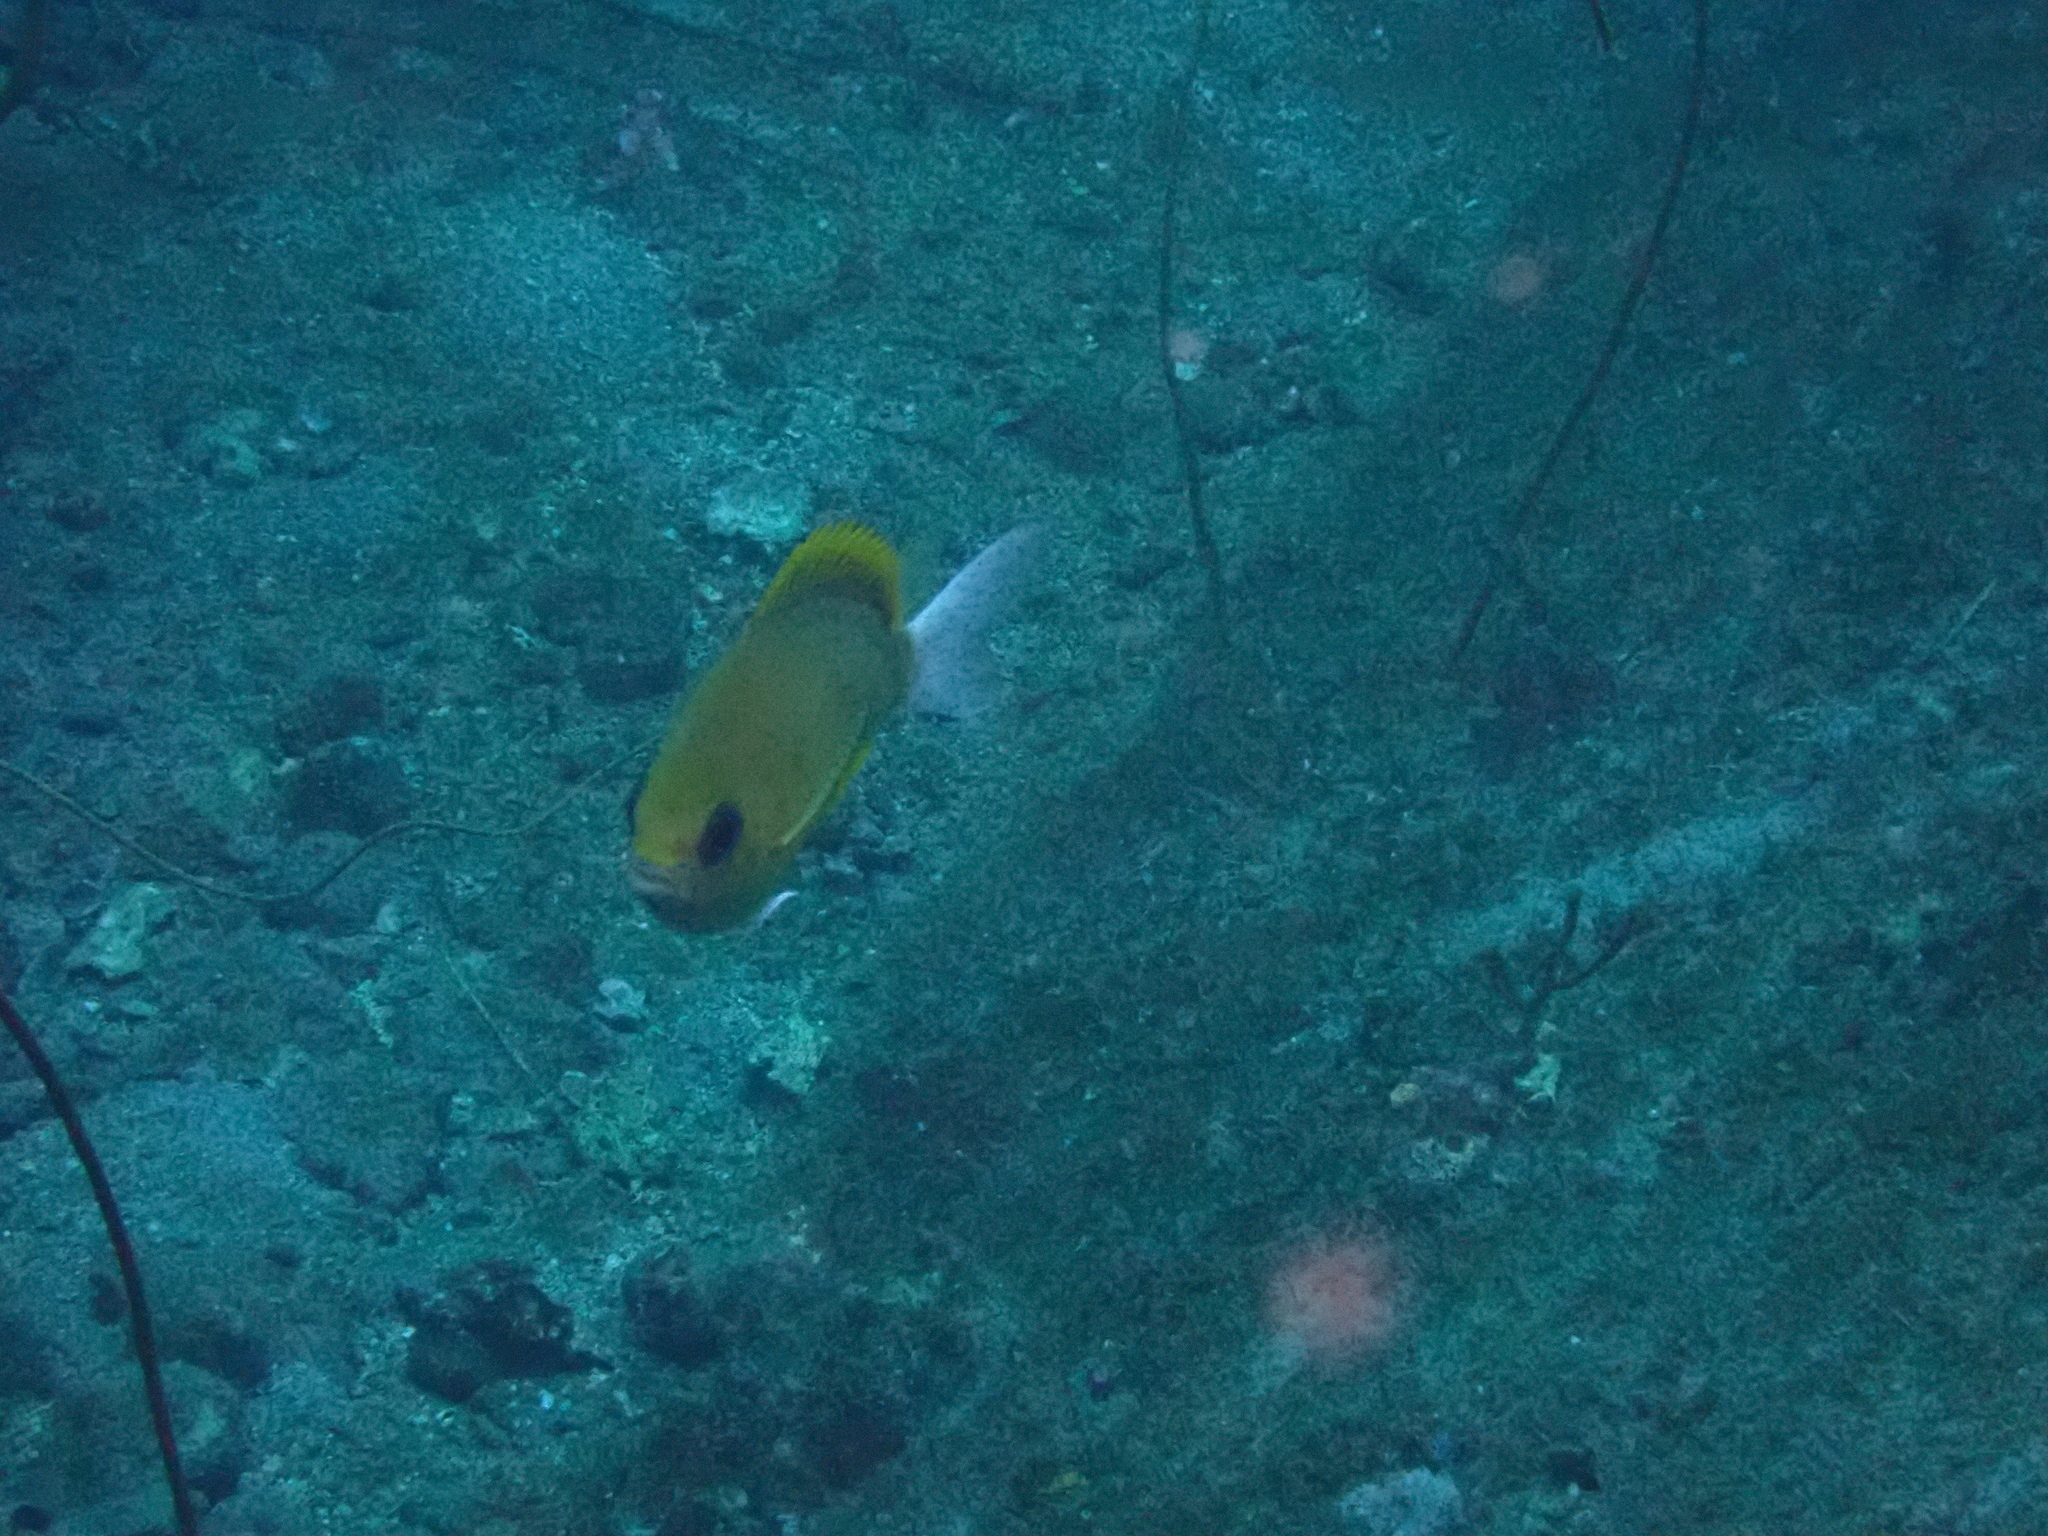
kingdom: Animalia
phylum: Chordata
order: Perciformes
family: Pomacentridae
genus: Chromis
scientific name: Chromis albicauda
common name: White-caudal chromis
